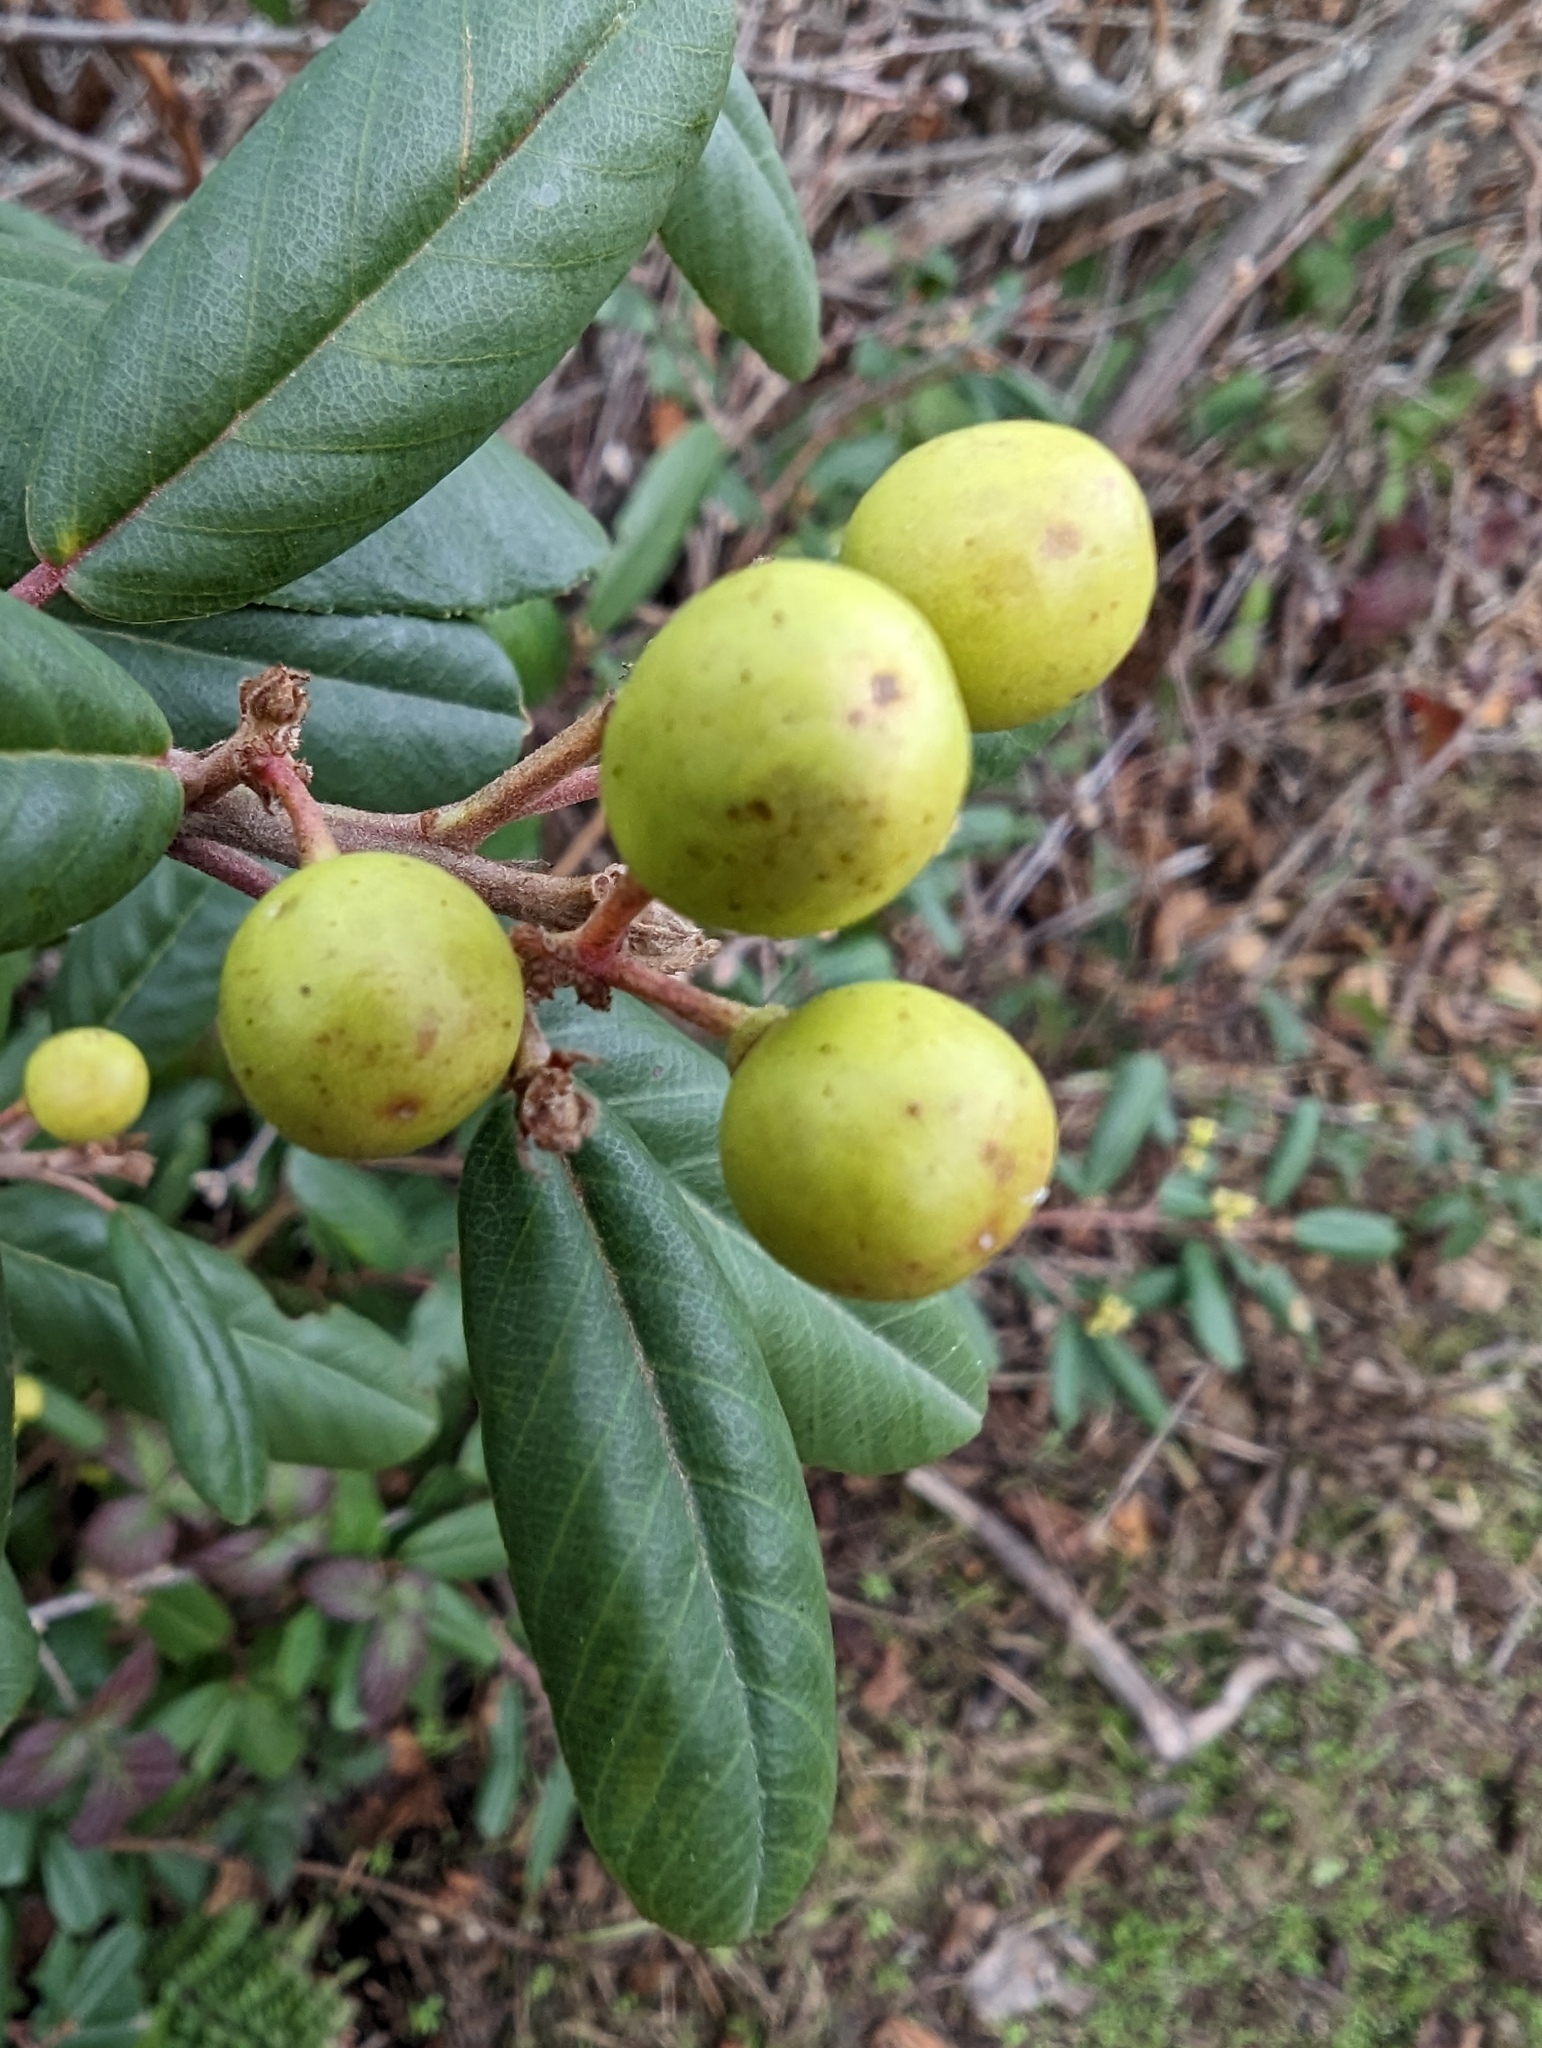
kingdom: Plantae
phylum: Tracheophyta
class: Magnoliopsida
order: Rosales
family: Rhamnaceae
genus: Frangula
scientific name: Frangula californica
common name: California buckthorn
